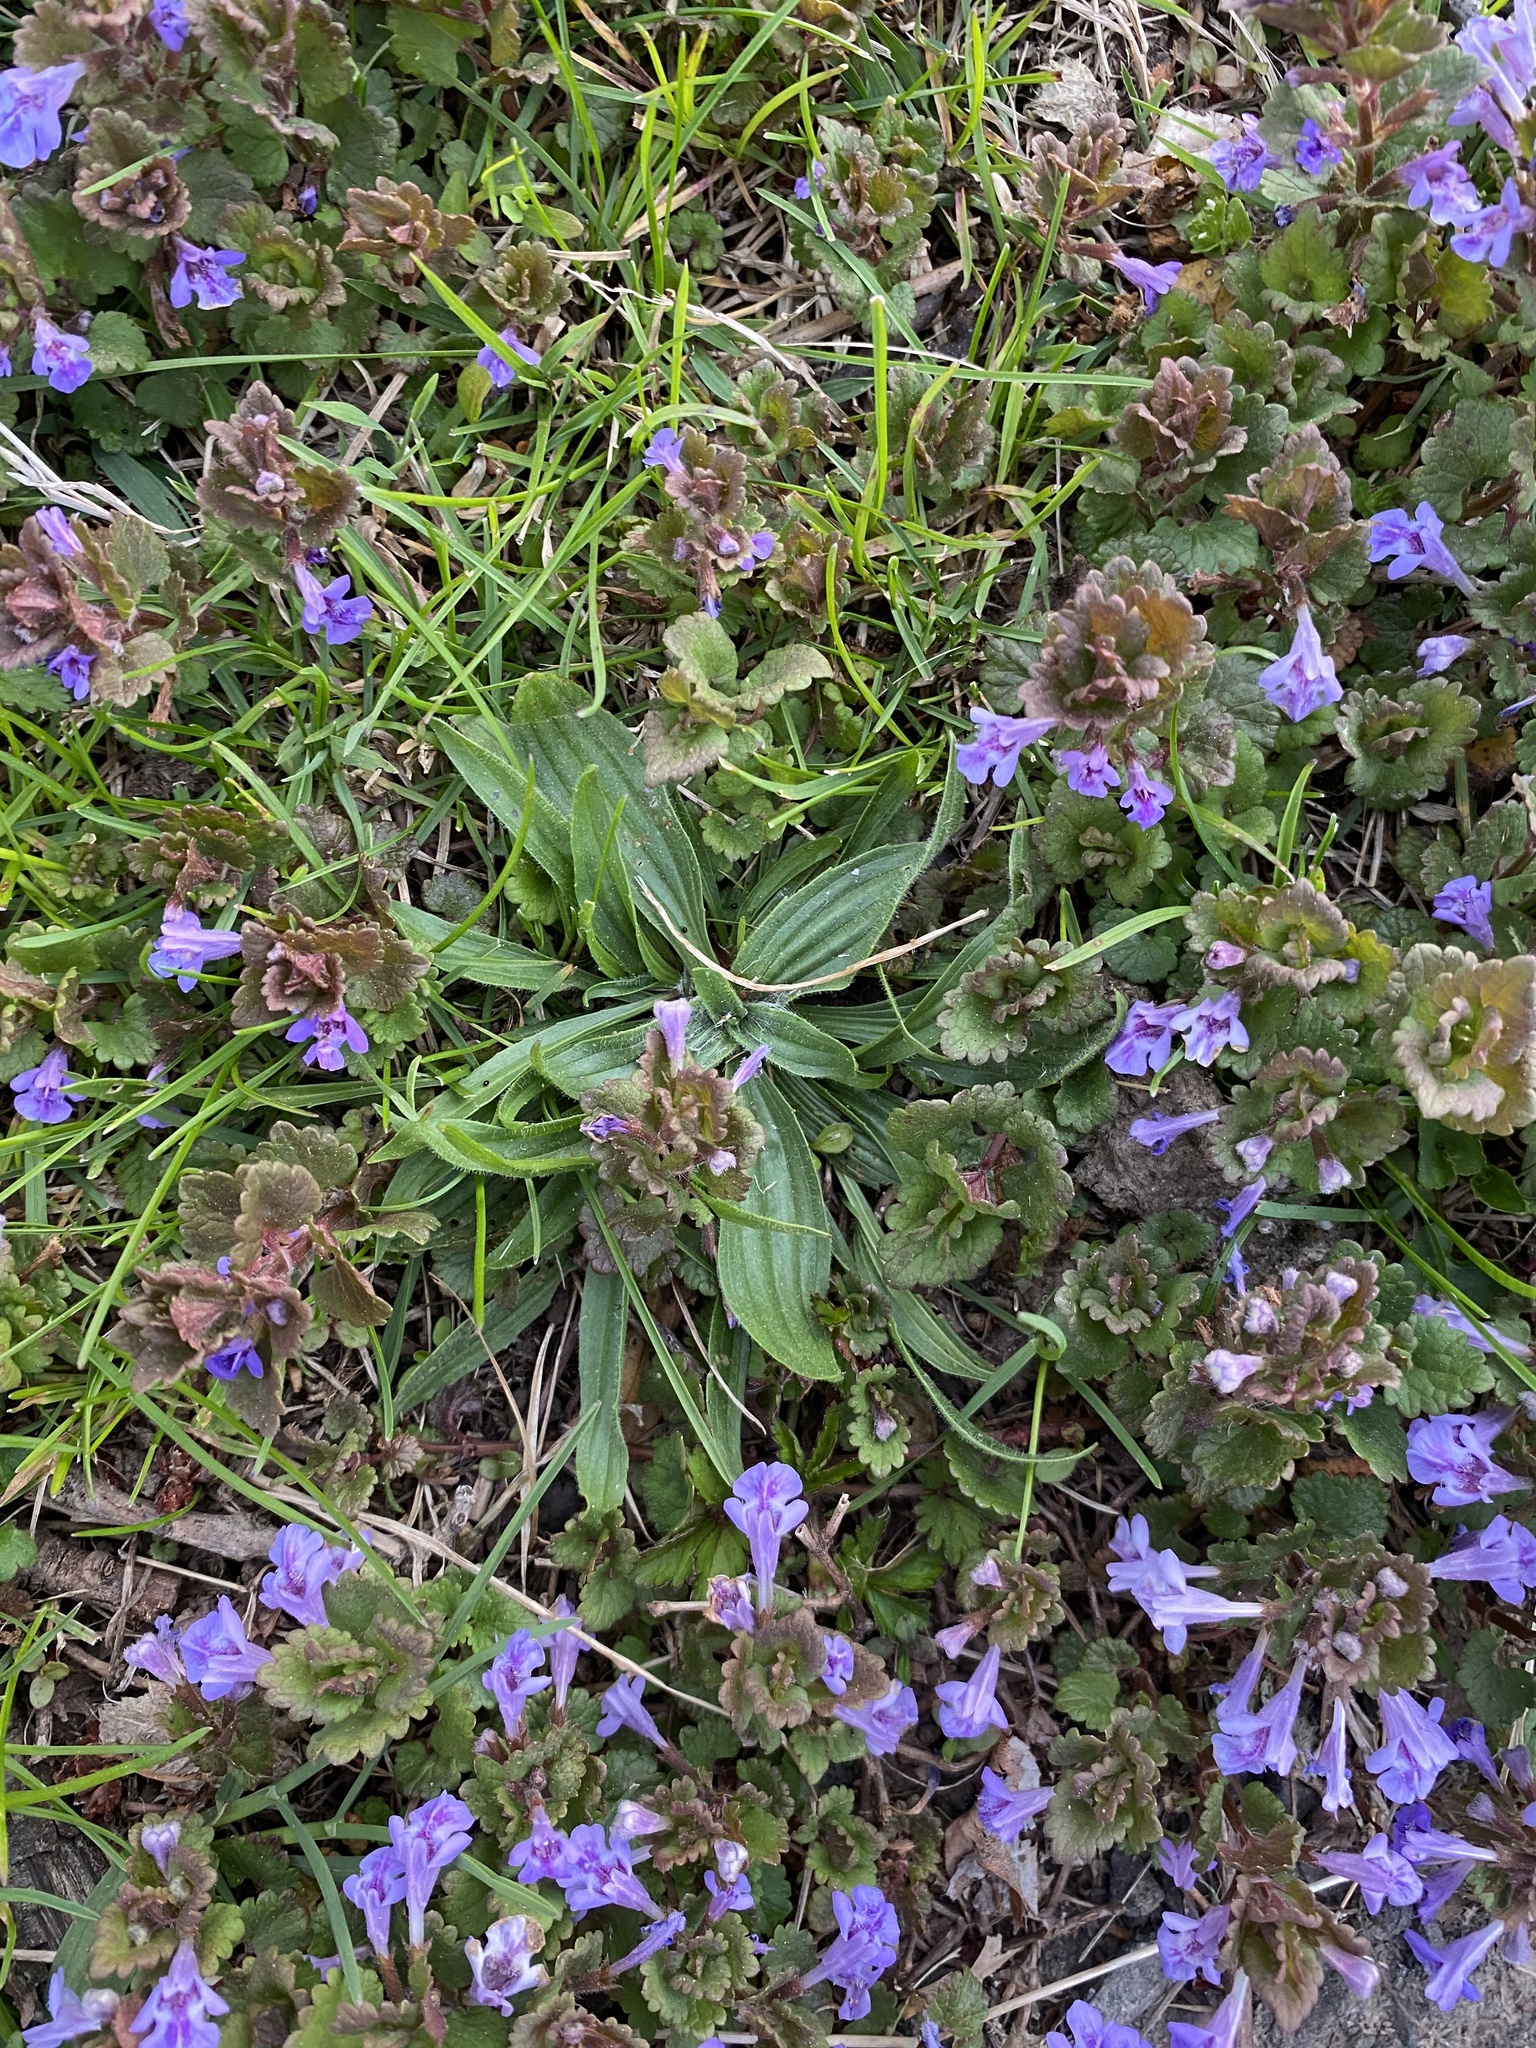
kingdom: Plantae
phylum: Tracheophyta
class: Magnoliopsida
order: Lamiales
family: Plantaginaceae
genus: Plantago
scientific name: Plantago lanceolata
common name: Ribwort plantain
